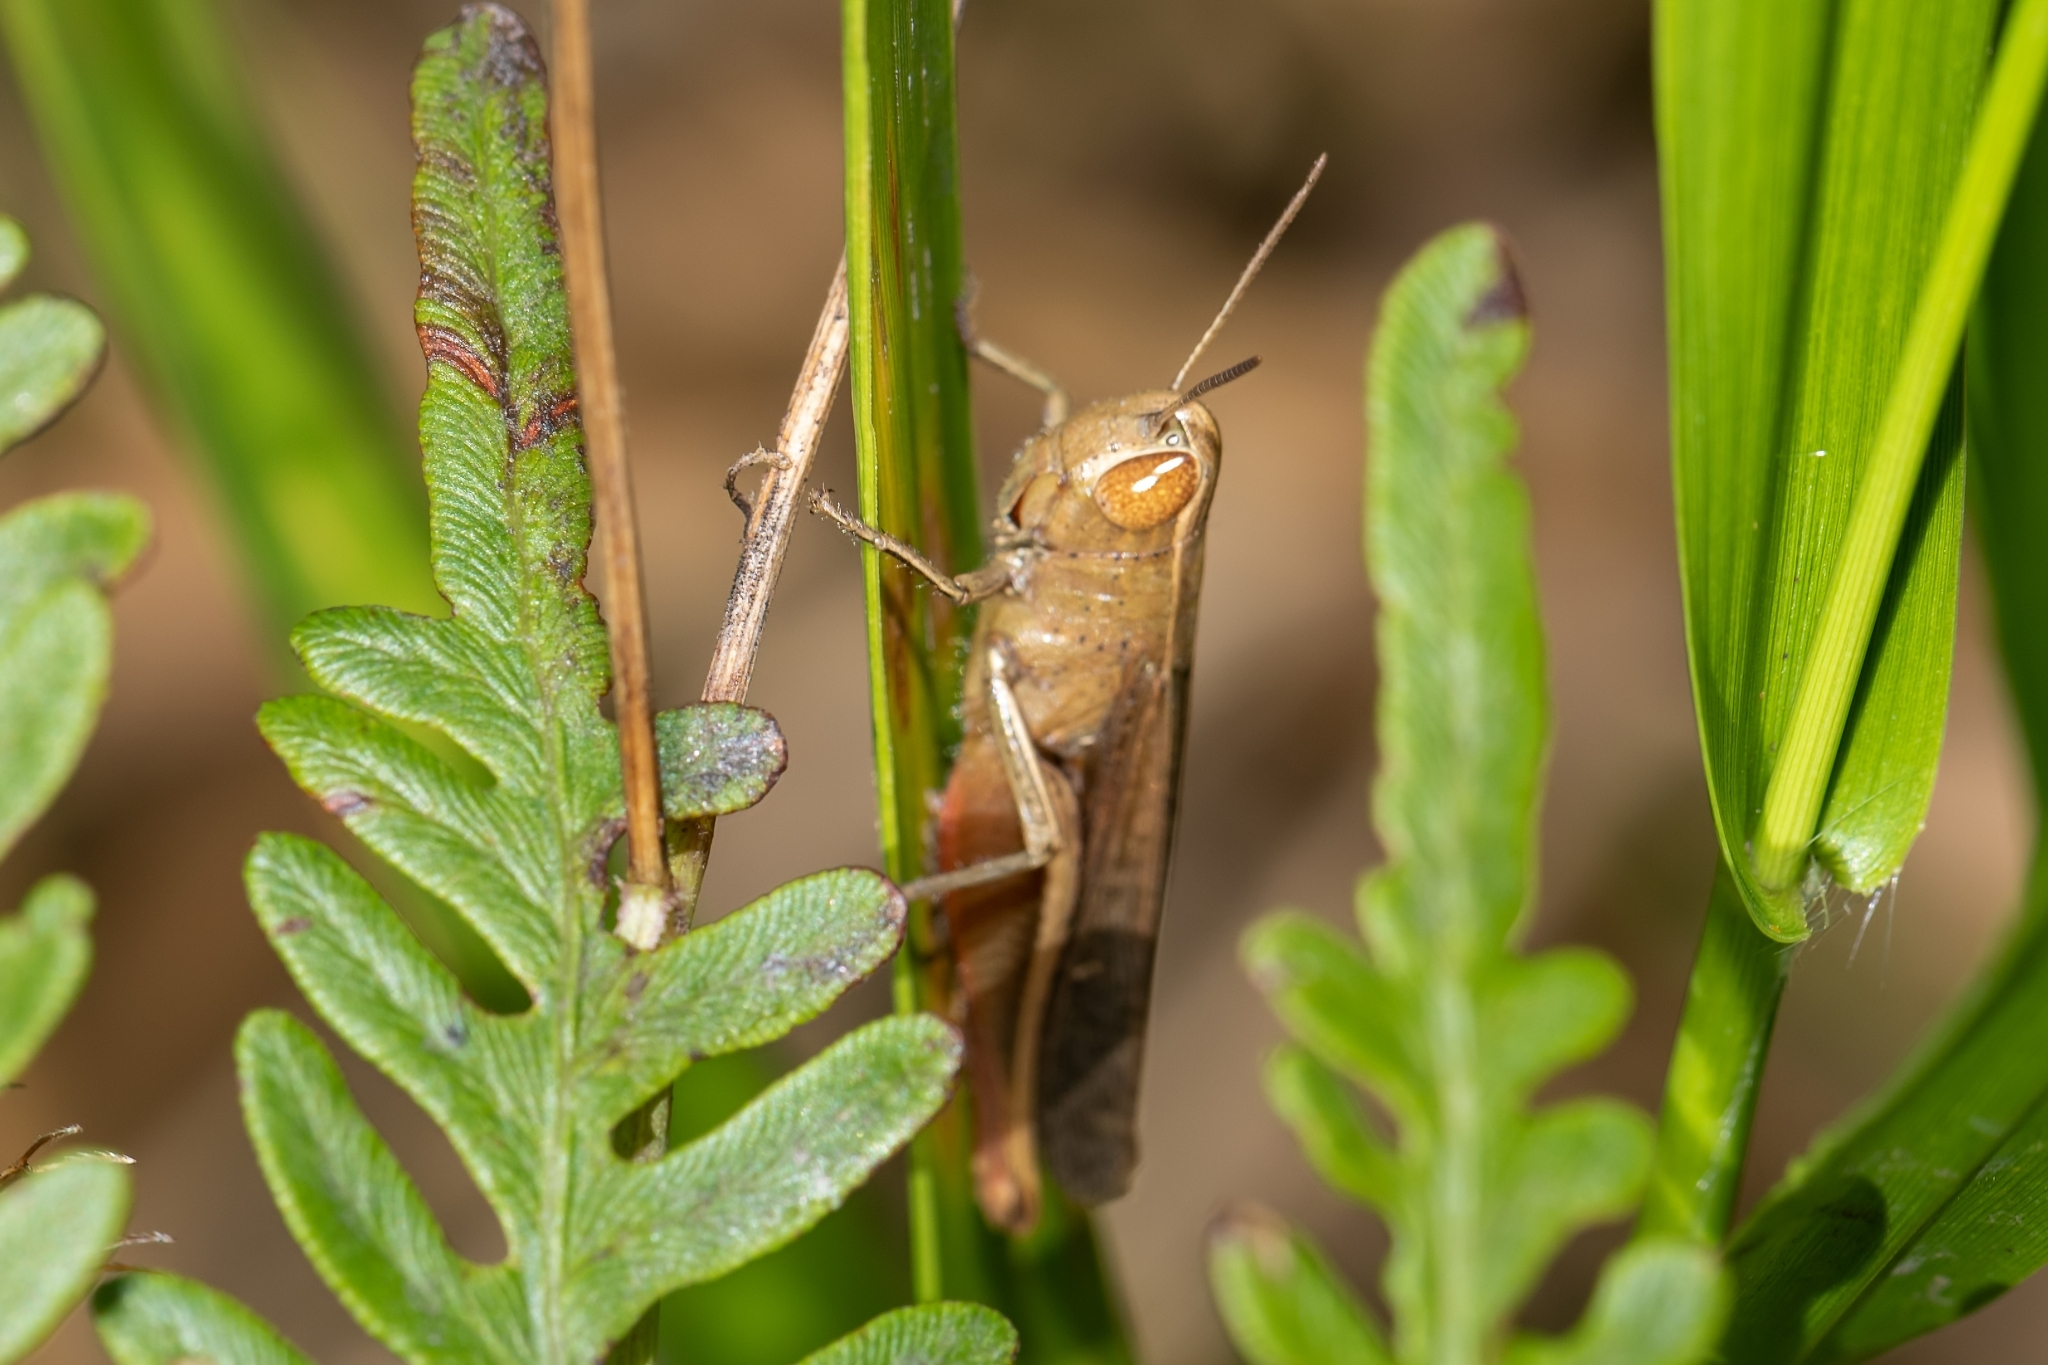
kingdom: Animalia
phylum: Arthropoda
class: Insecta
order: Orthoptera
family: Acrididae
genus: Amblytropidia
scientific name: Amblytropidia mysteca
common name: Brown winter grasshopper
